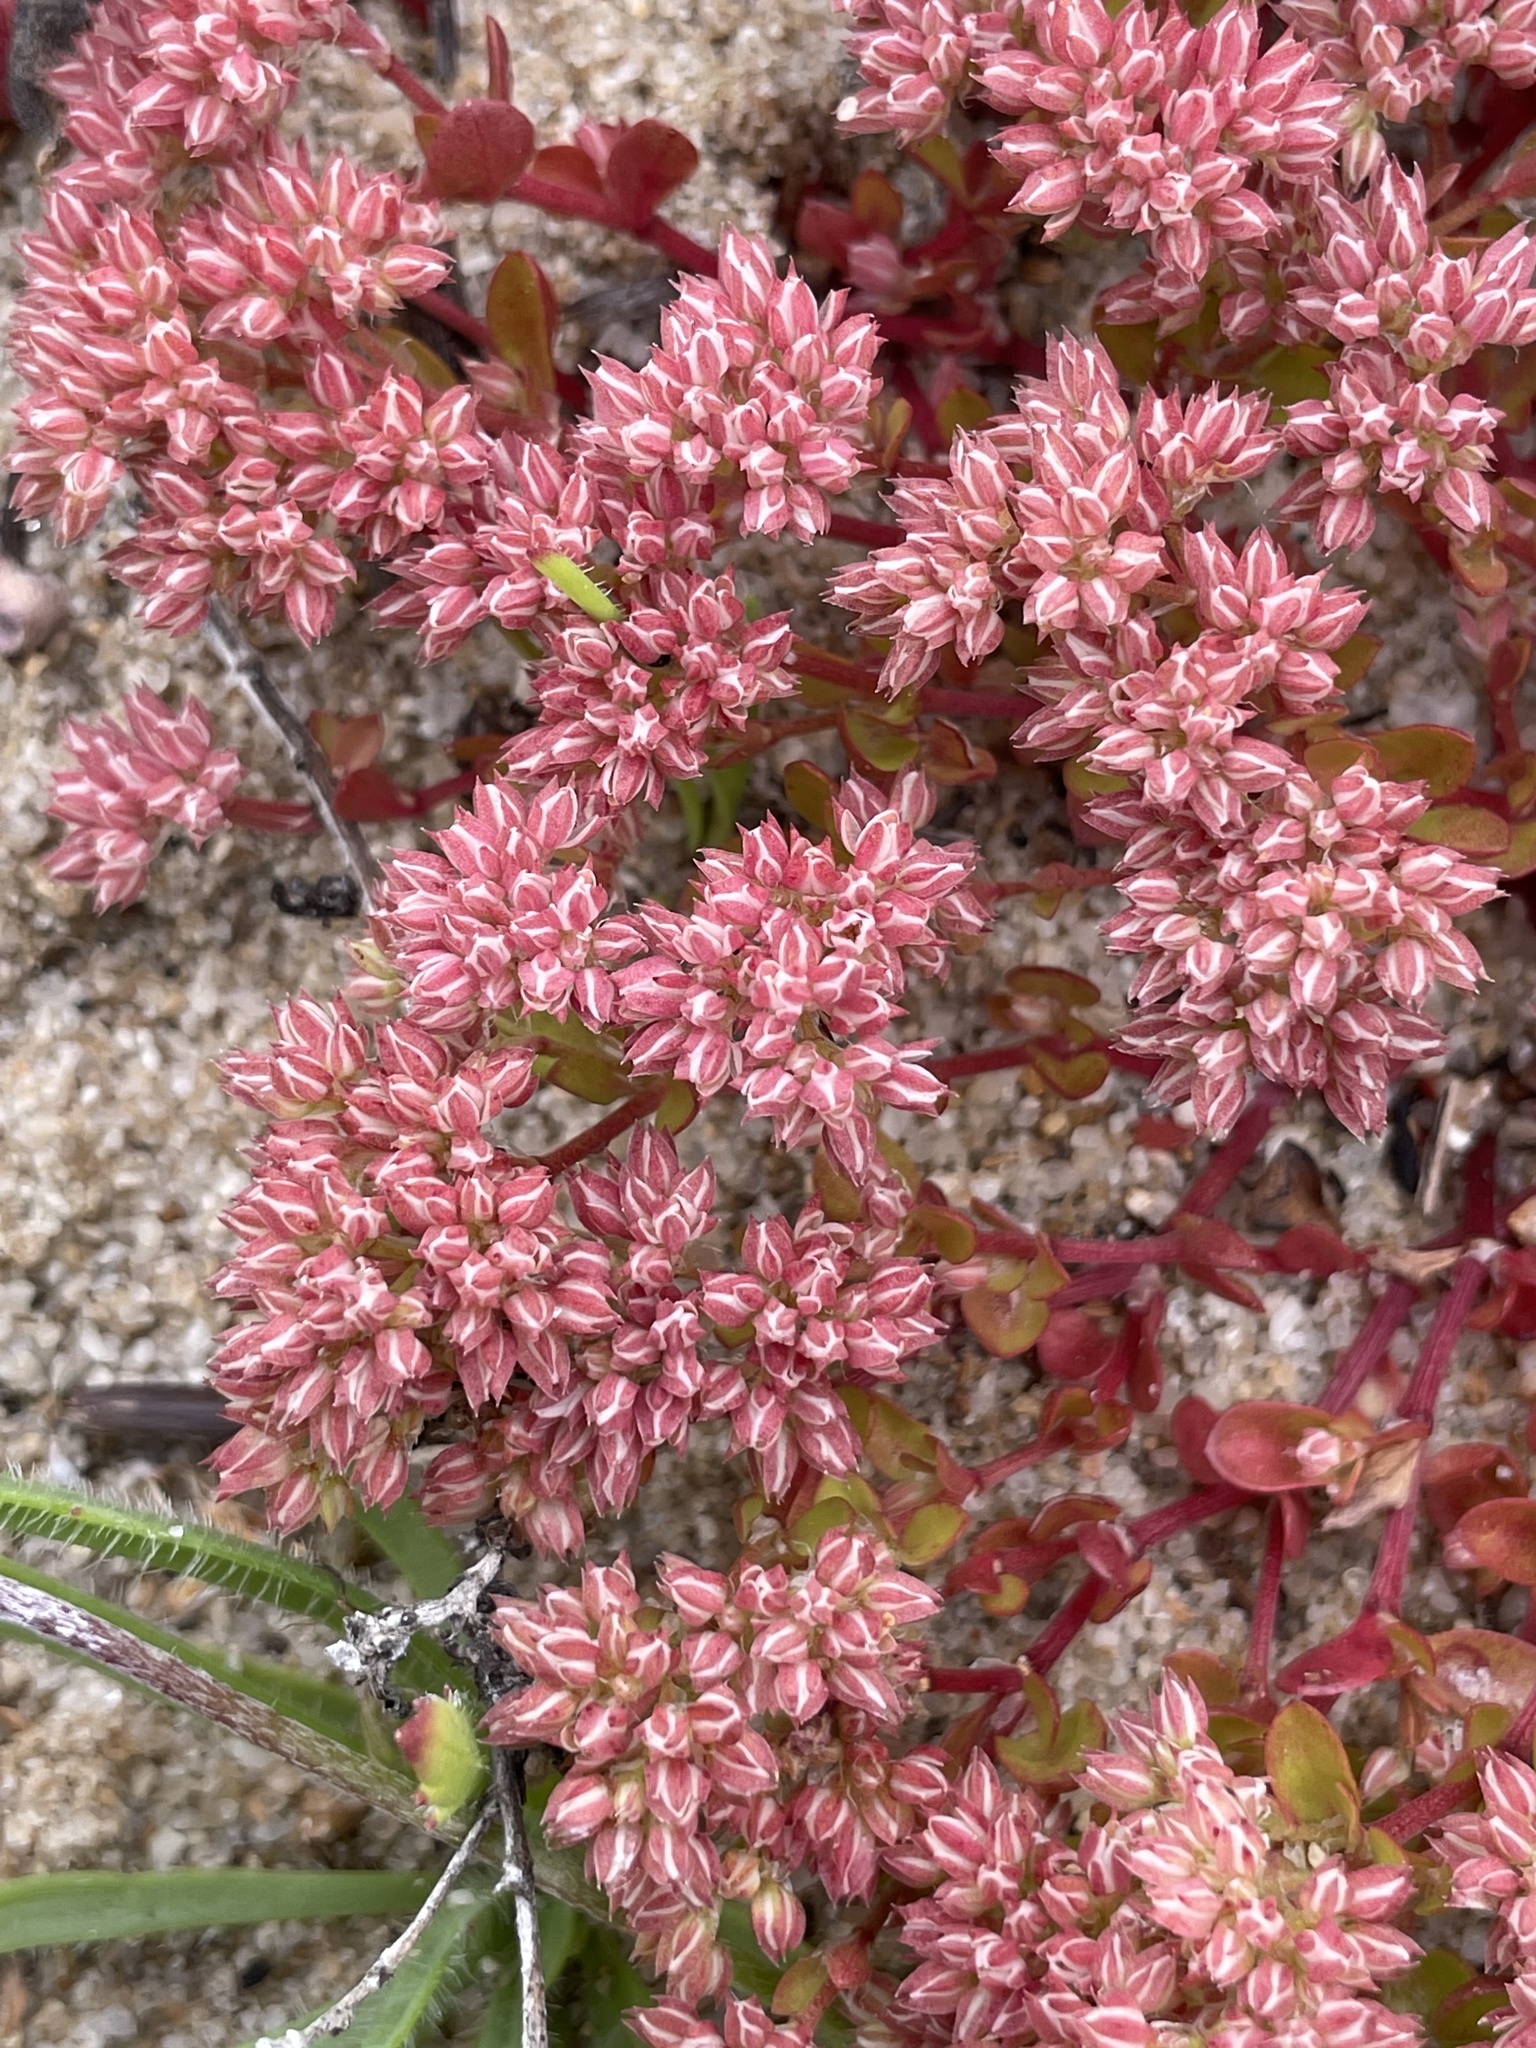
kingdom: Plantae
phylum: Tracheophyta
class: Magnoliopsida
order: Caryophyllales
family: Caryophyllaceae
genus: Polycarpon
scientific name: Polycarpon tetraphyllum
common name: Four-leaved all-seed
